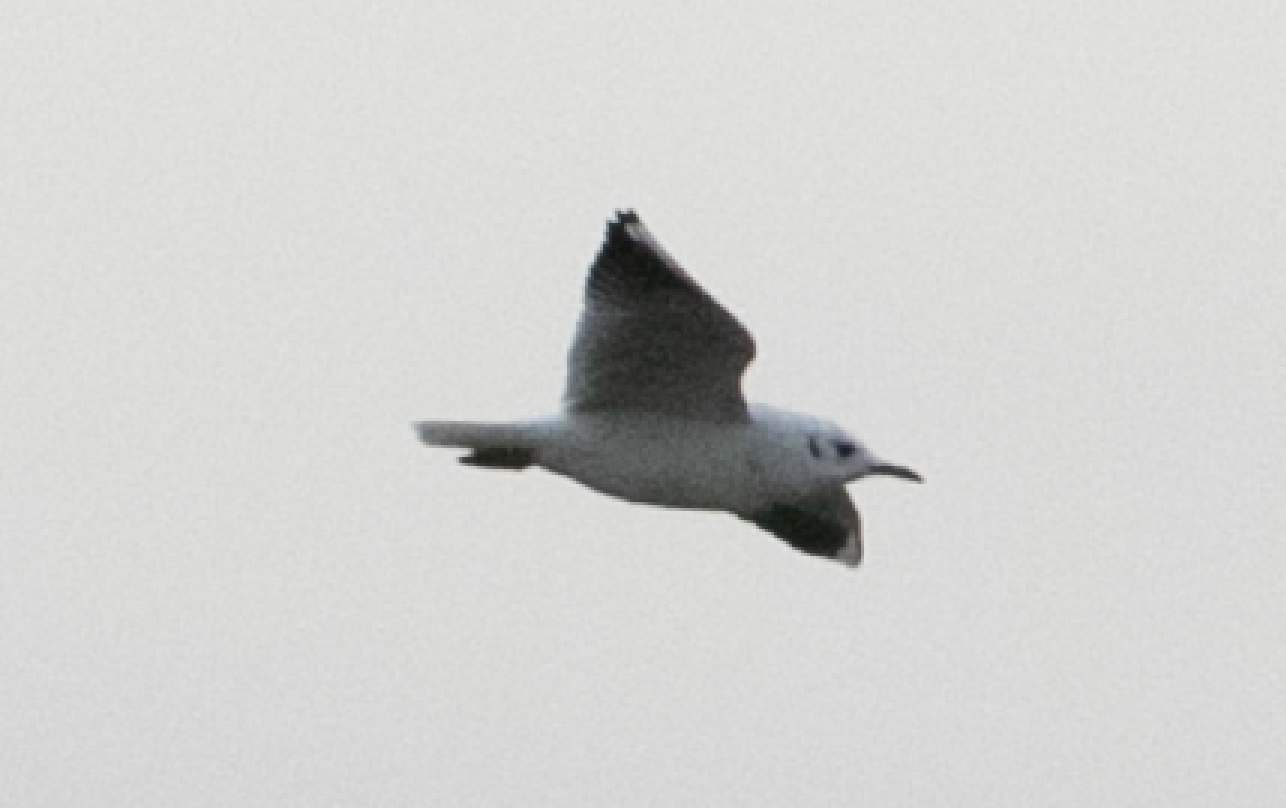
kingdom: Animalia
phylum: Chordata
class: Aves
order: Charadriiformes
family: Laridae
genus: Chroicocephalus
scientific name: Chroicocephalus ridibundus
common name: Black-headed gull
